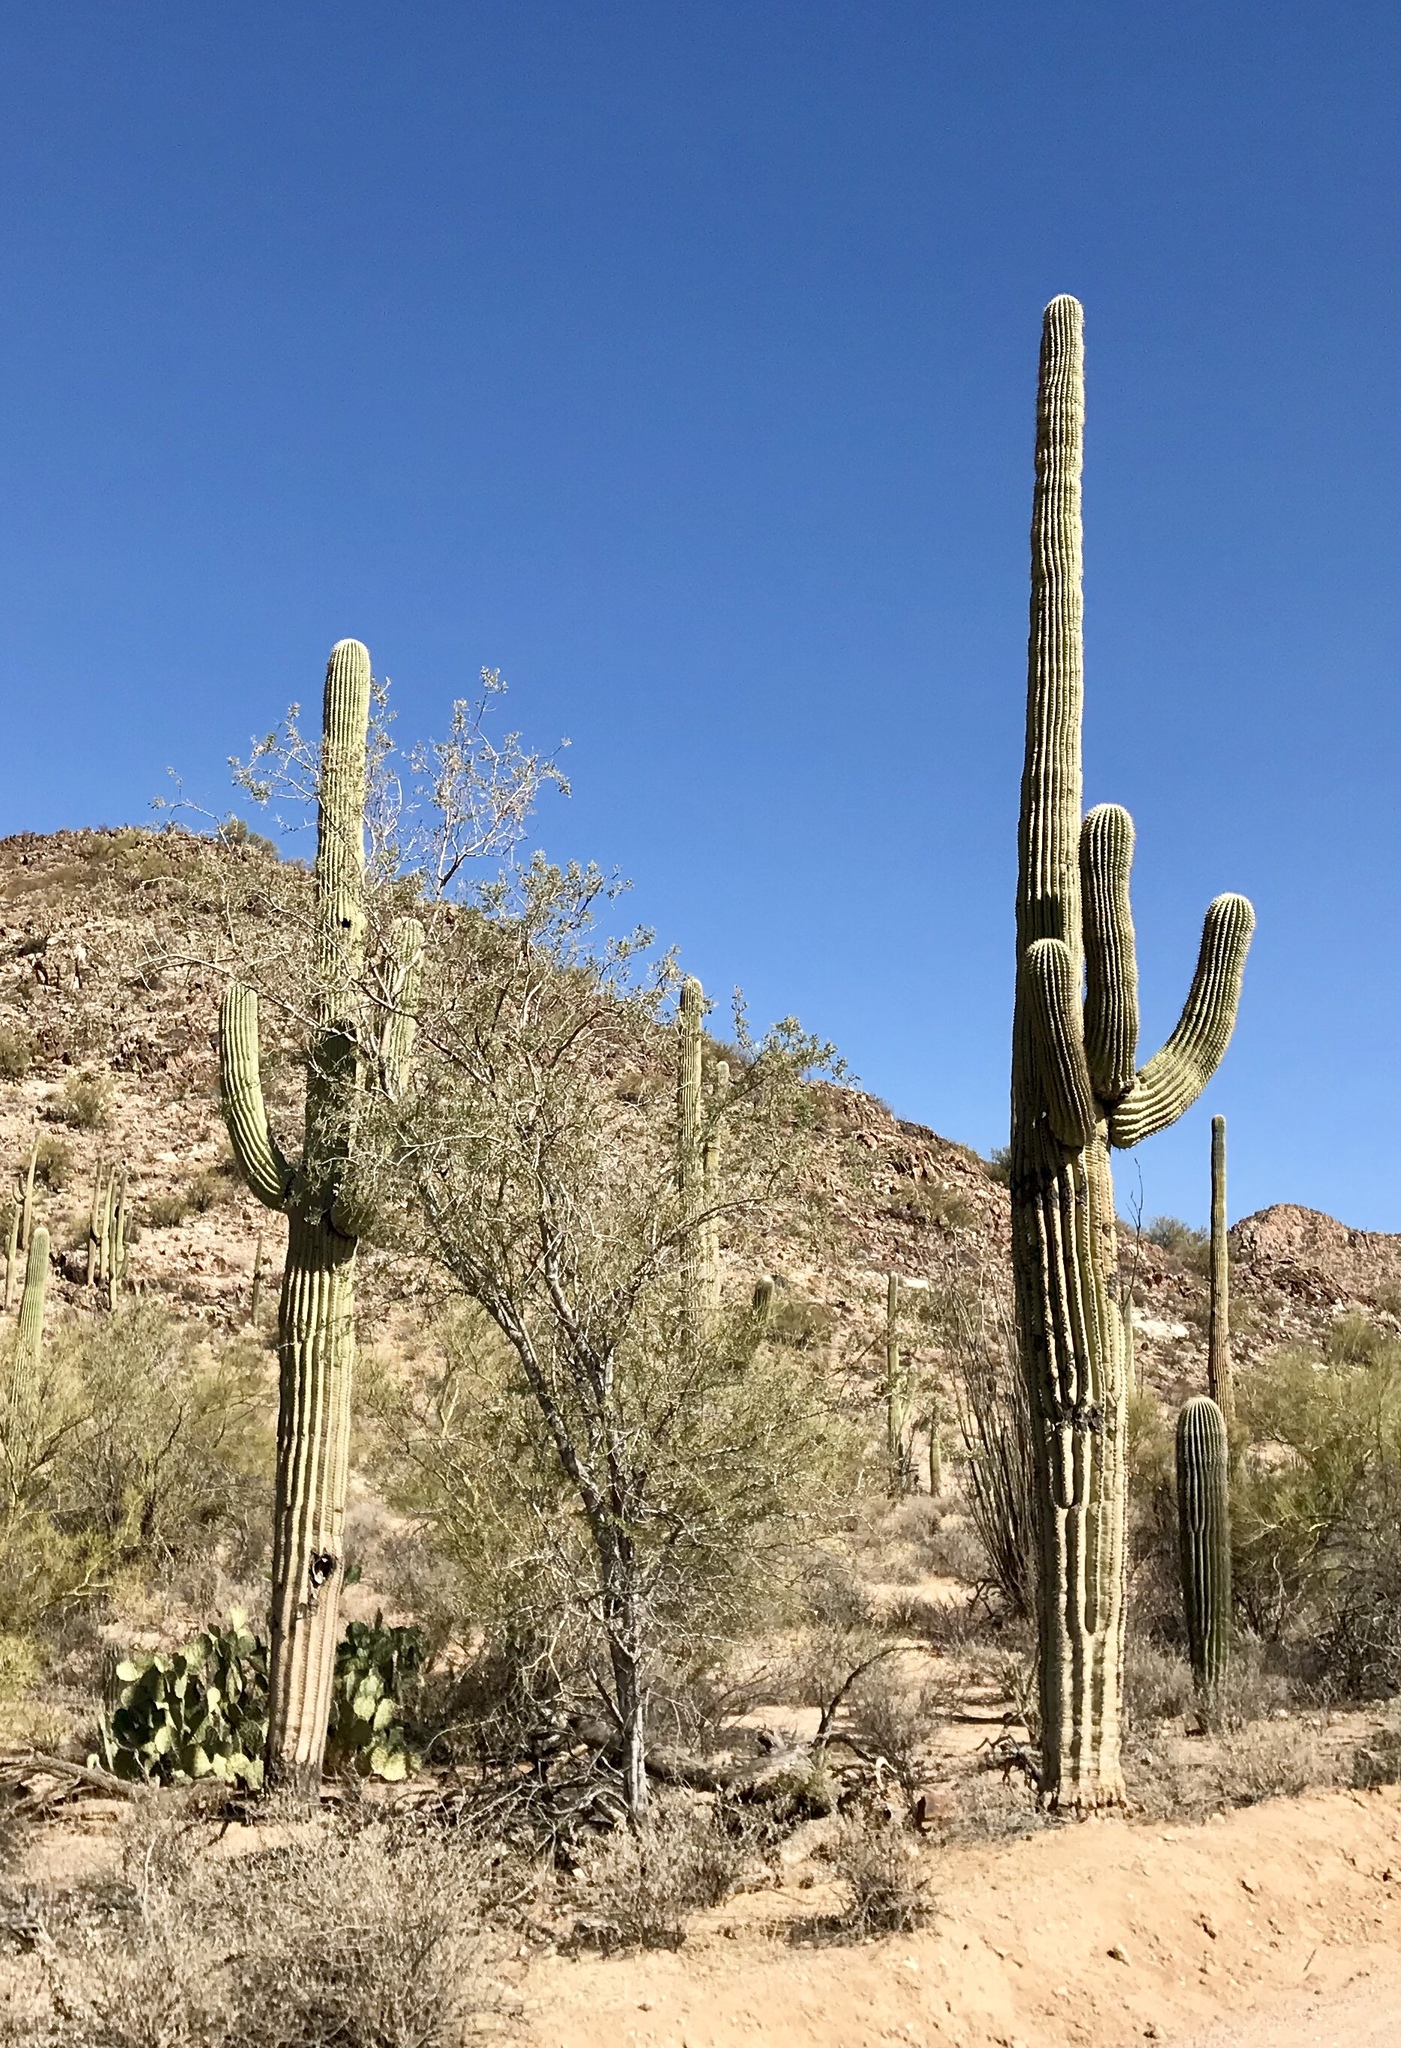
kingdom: Plantae
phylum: Tracheophyta
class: Magnoliopsida
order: Caryophyllales
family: Cactaceae
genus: Carnegiea
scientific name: Carnegiea gigantea
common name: Saguaro
